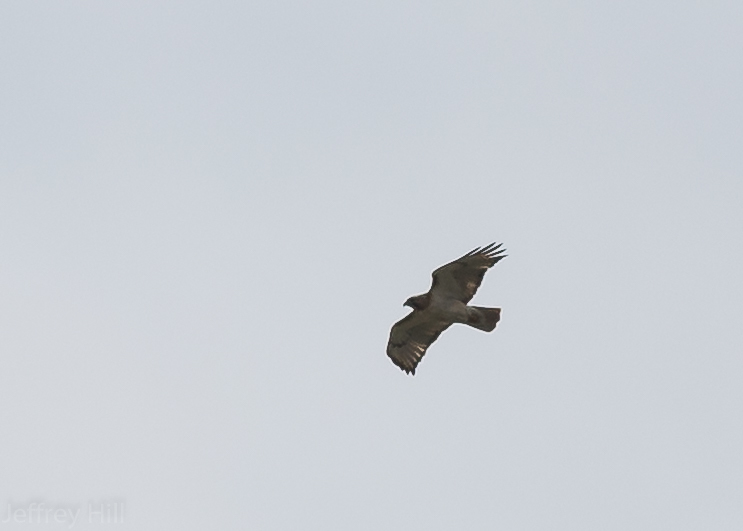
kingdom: Animalia
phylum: Chordata
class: Aves
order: Accipitriformes
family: Accipitridae
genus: Buteo
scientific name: Buteo jamaicensis
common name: Red-tailed hawk
